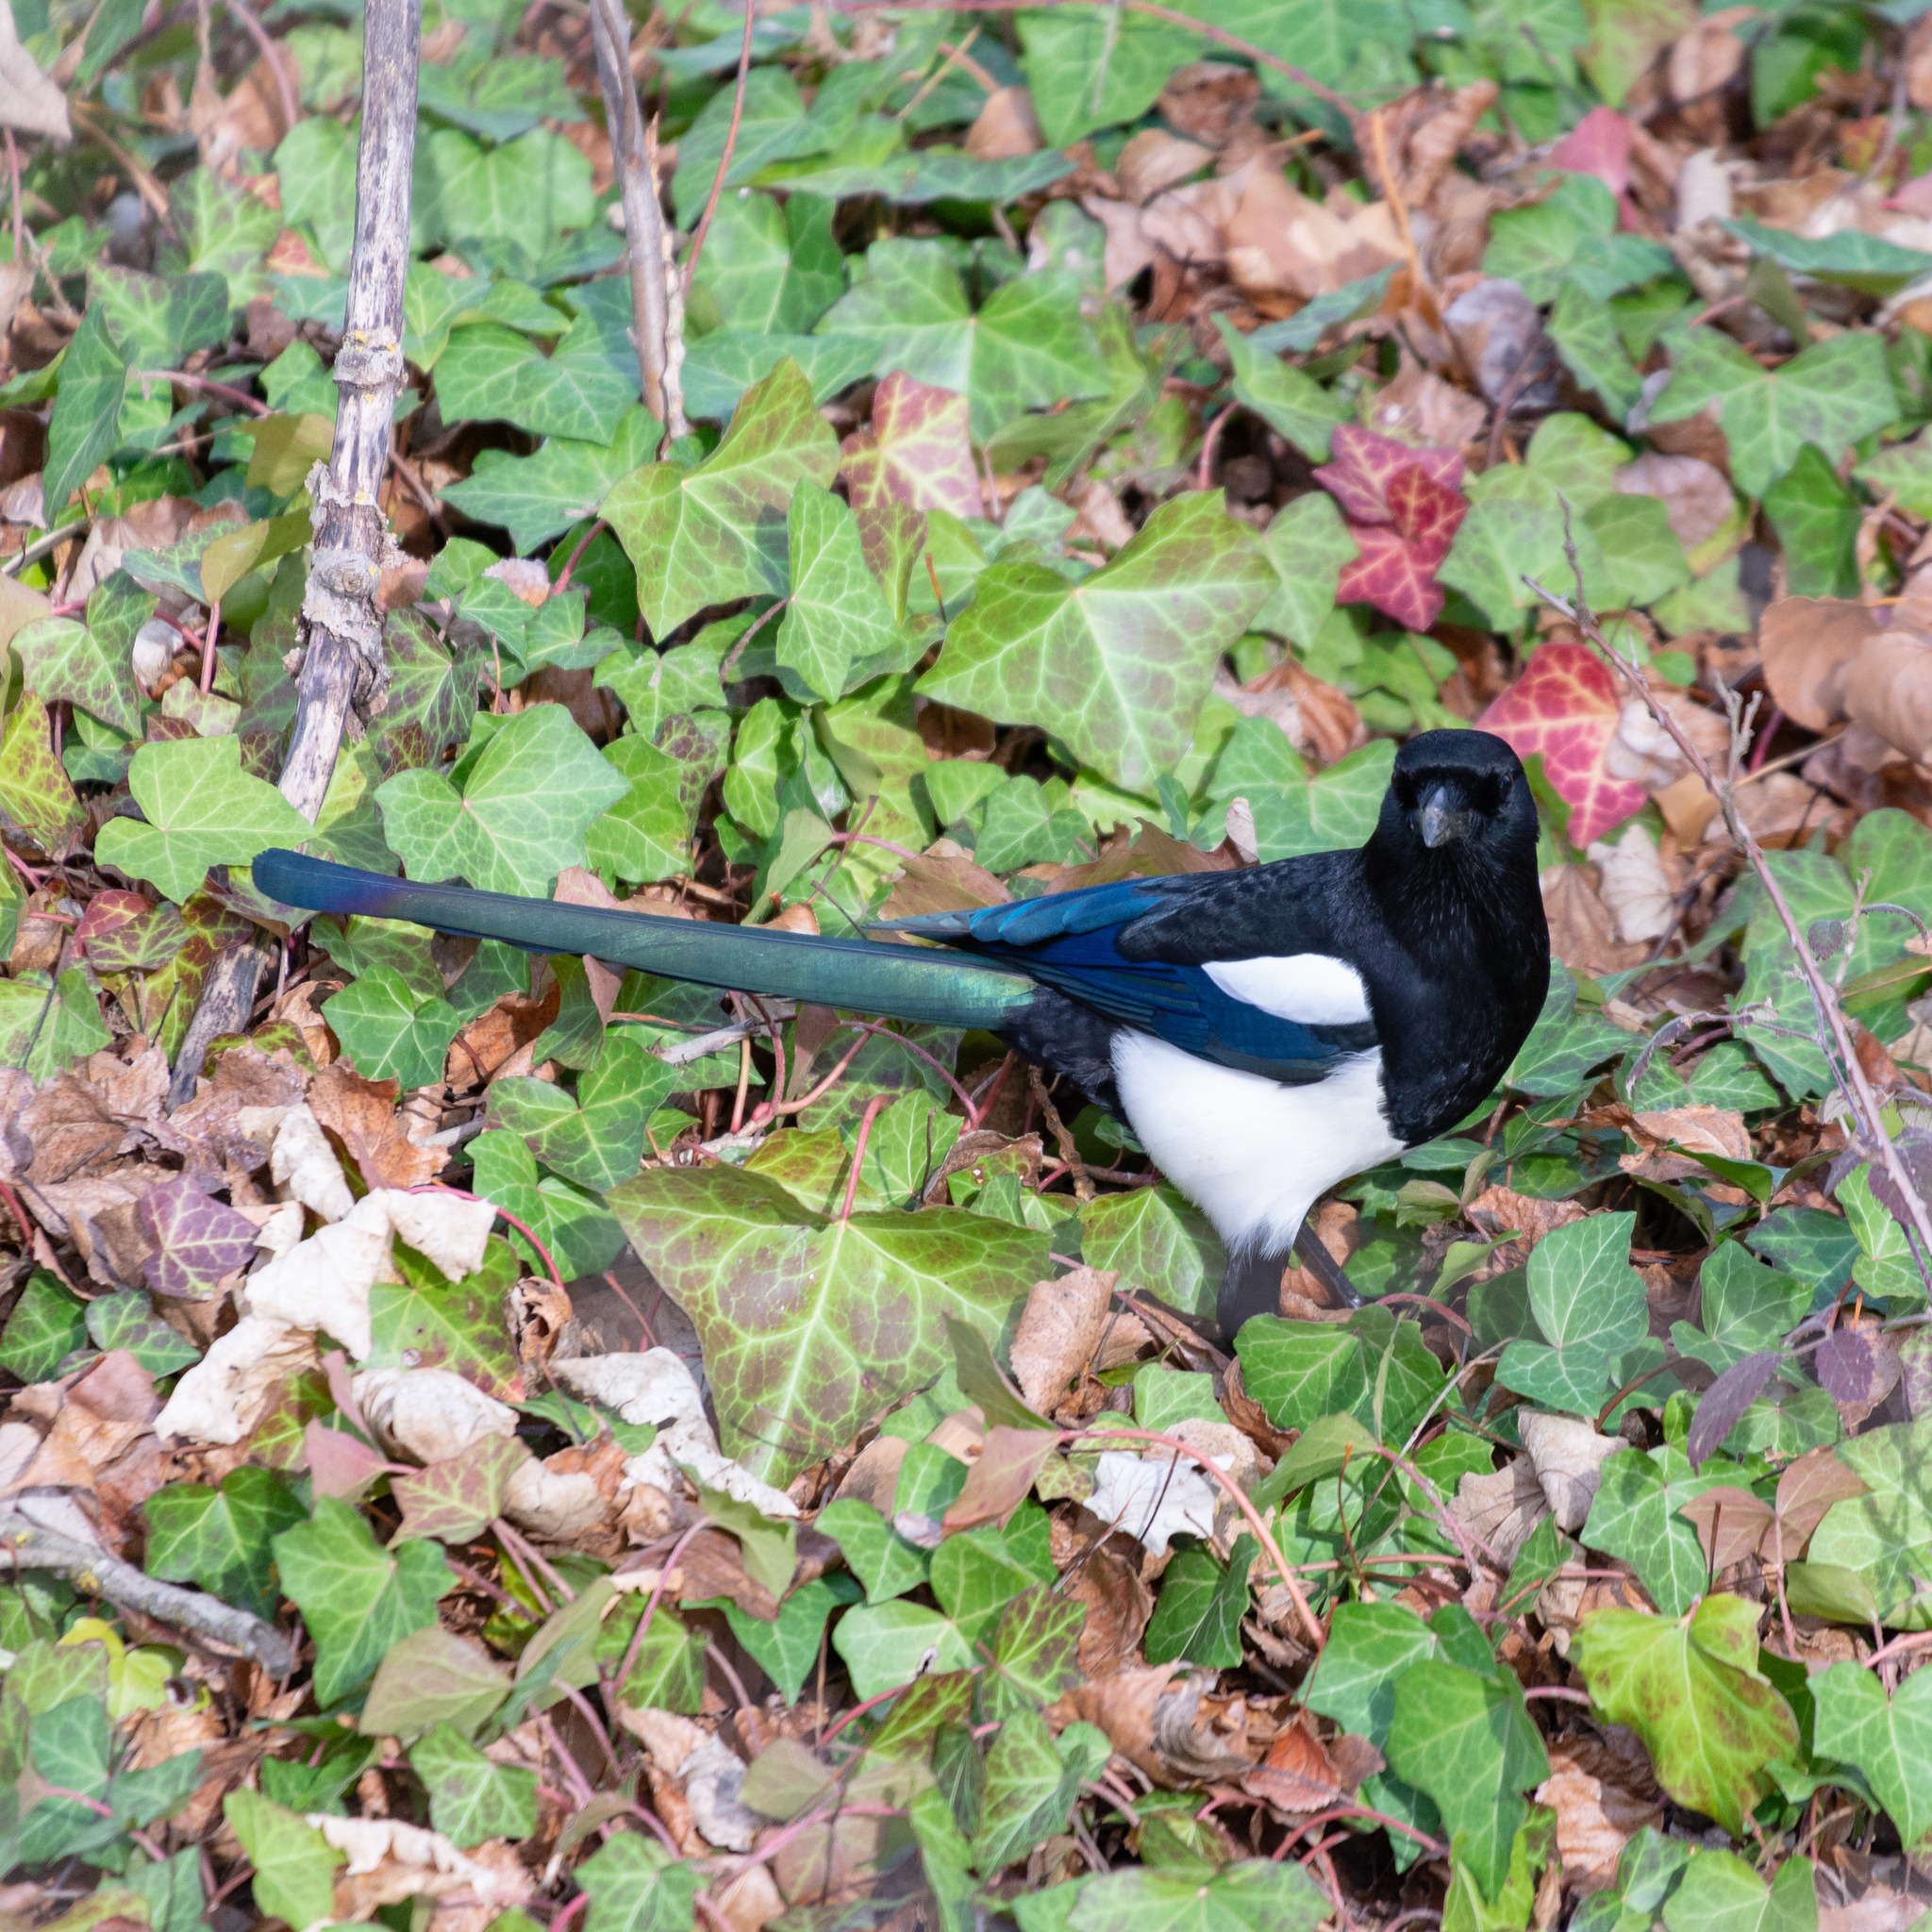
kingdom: Animalia
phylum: Chordata
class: Aves
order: Passeriformes
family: Corvidae
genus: Pica
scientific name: Pica pica
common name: Eurasian magpie
